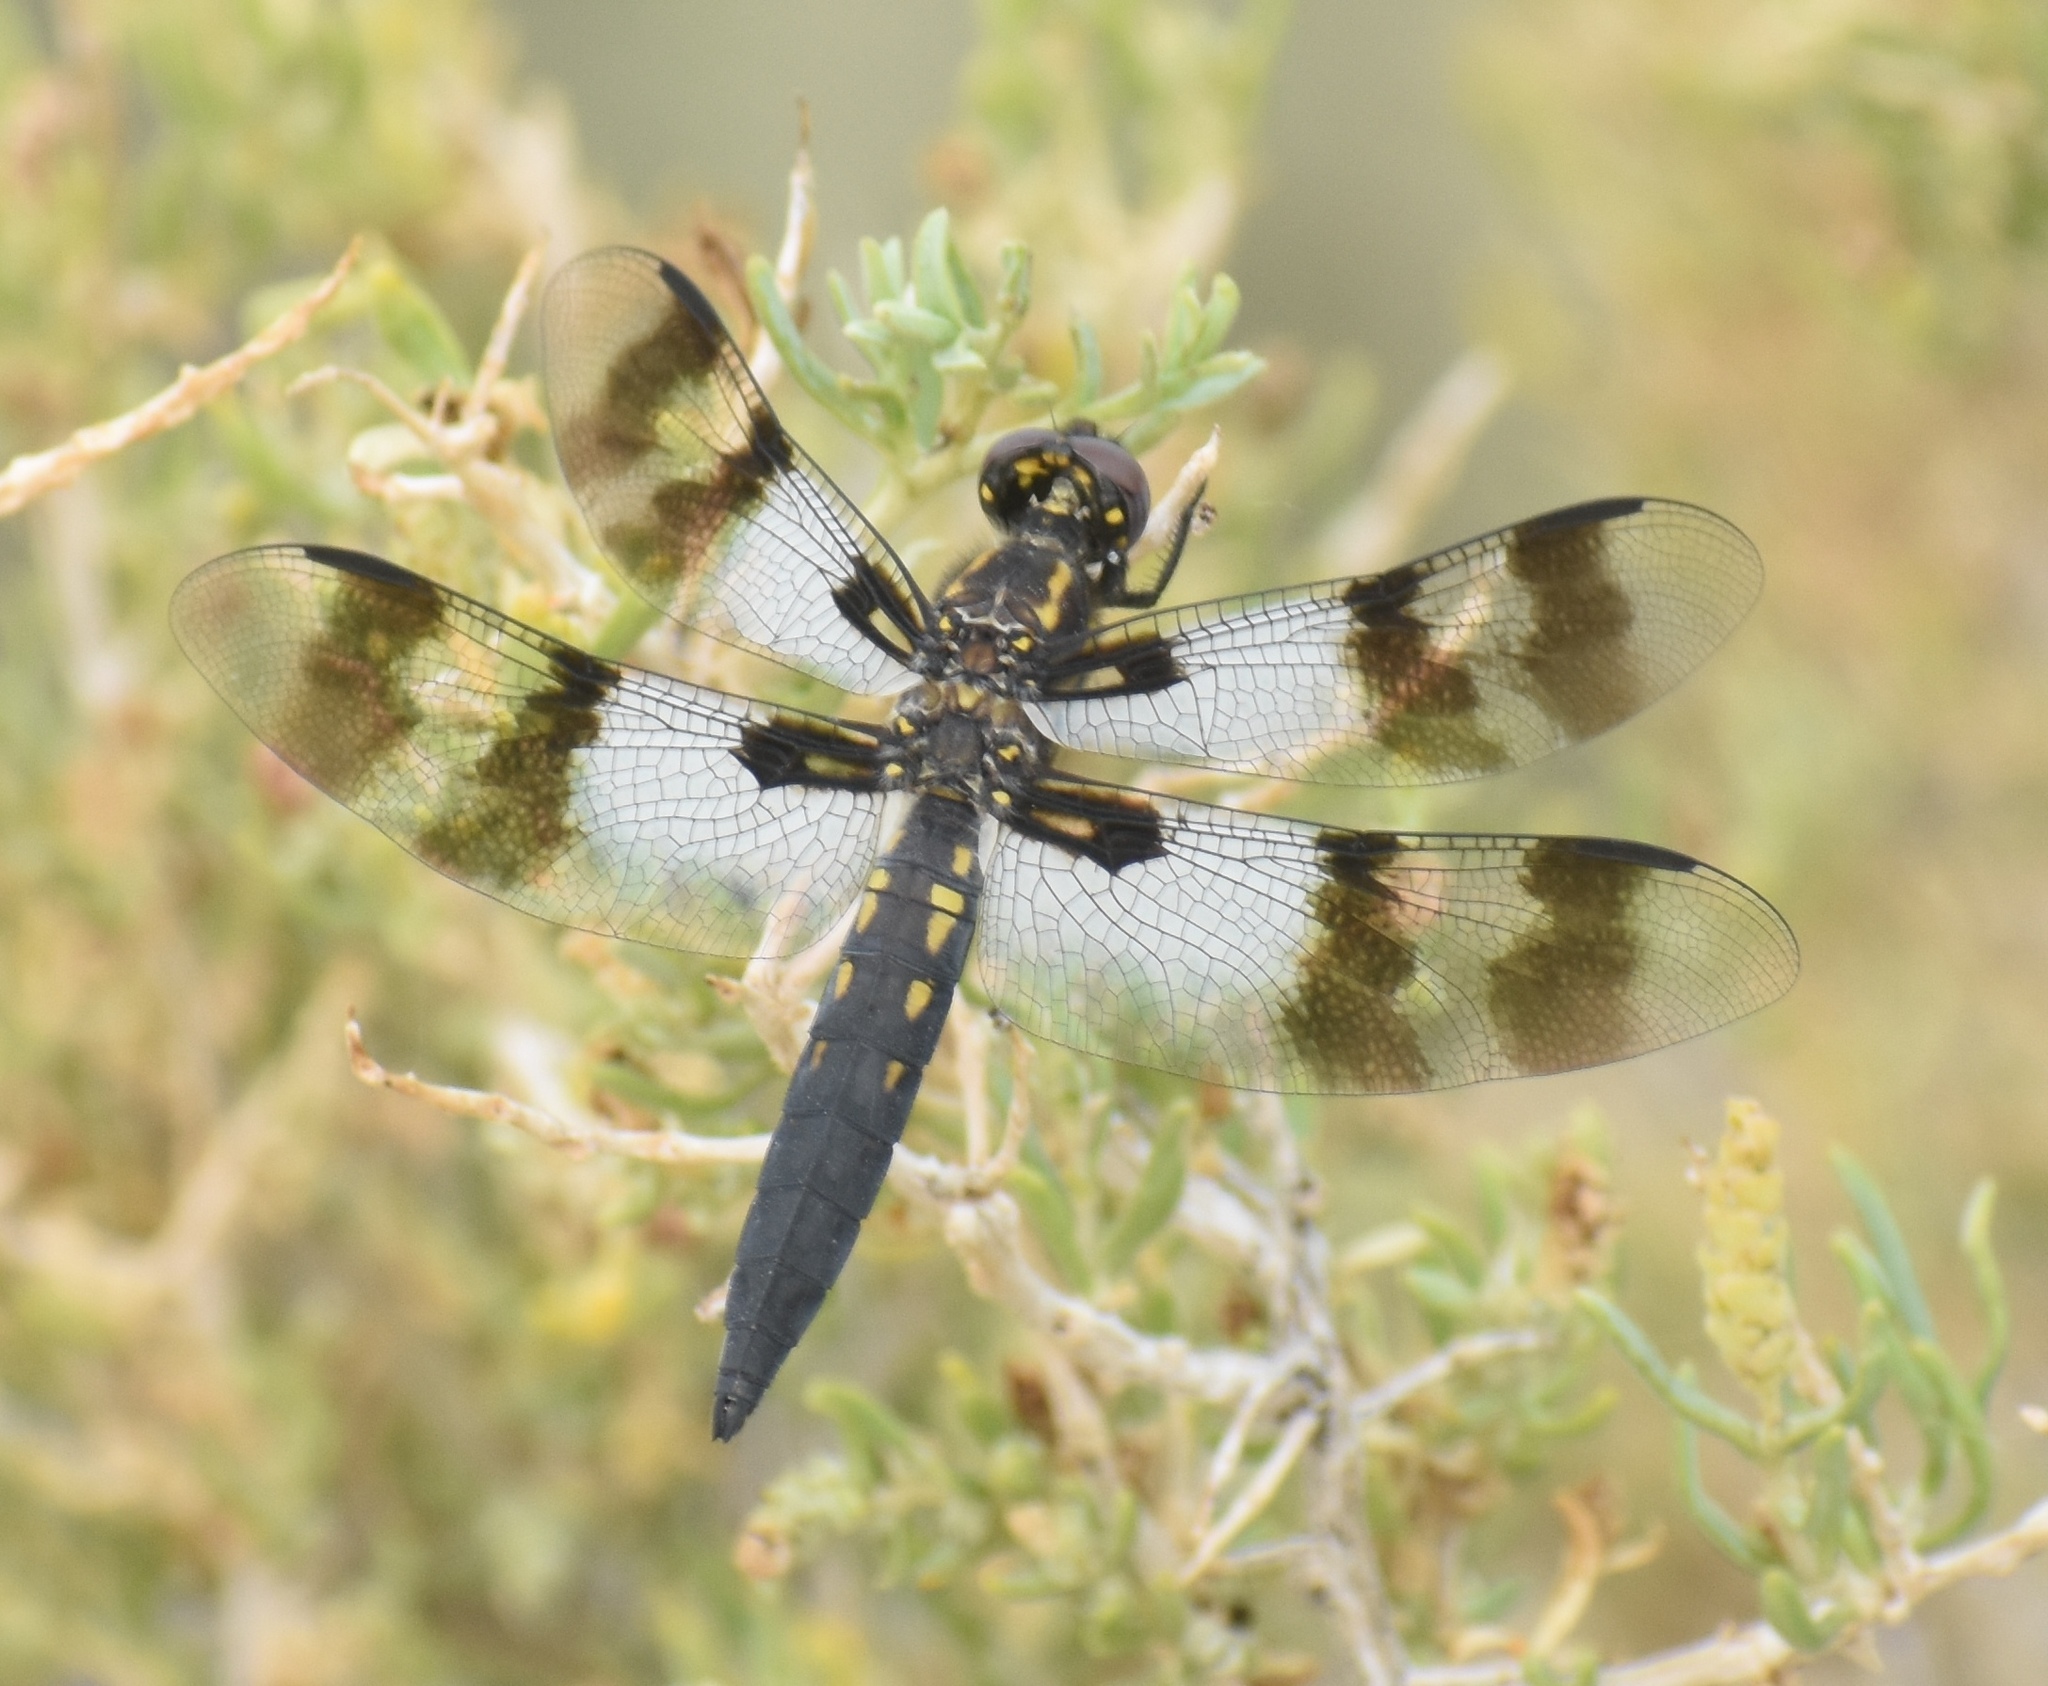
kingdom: Animalia
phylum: Arthropoda
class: Insecta
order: Odonata
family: Libellulidae
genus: Plathemis
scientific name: Plathemis subornata
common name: Desert whitetail
